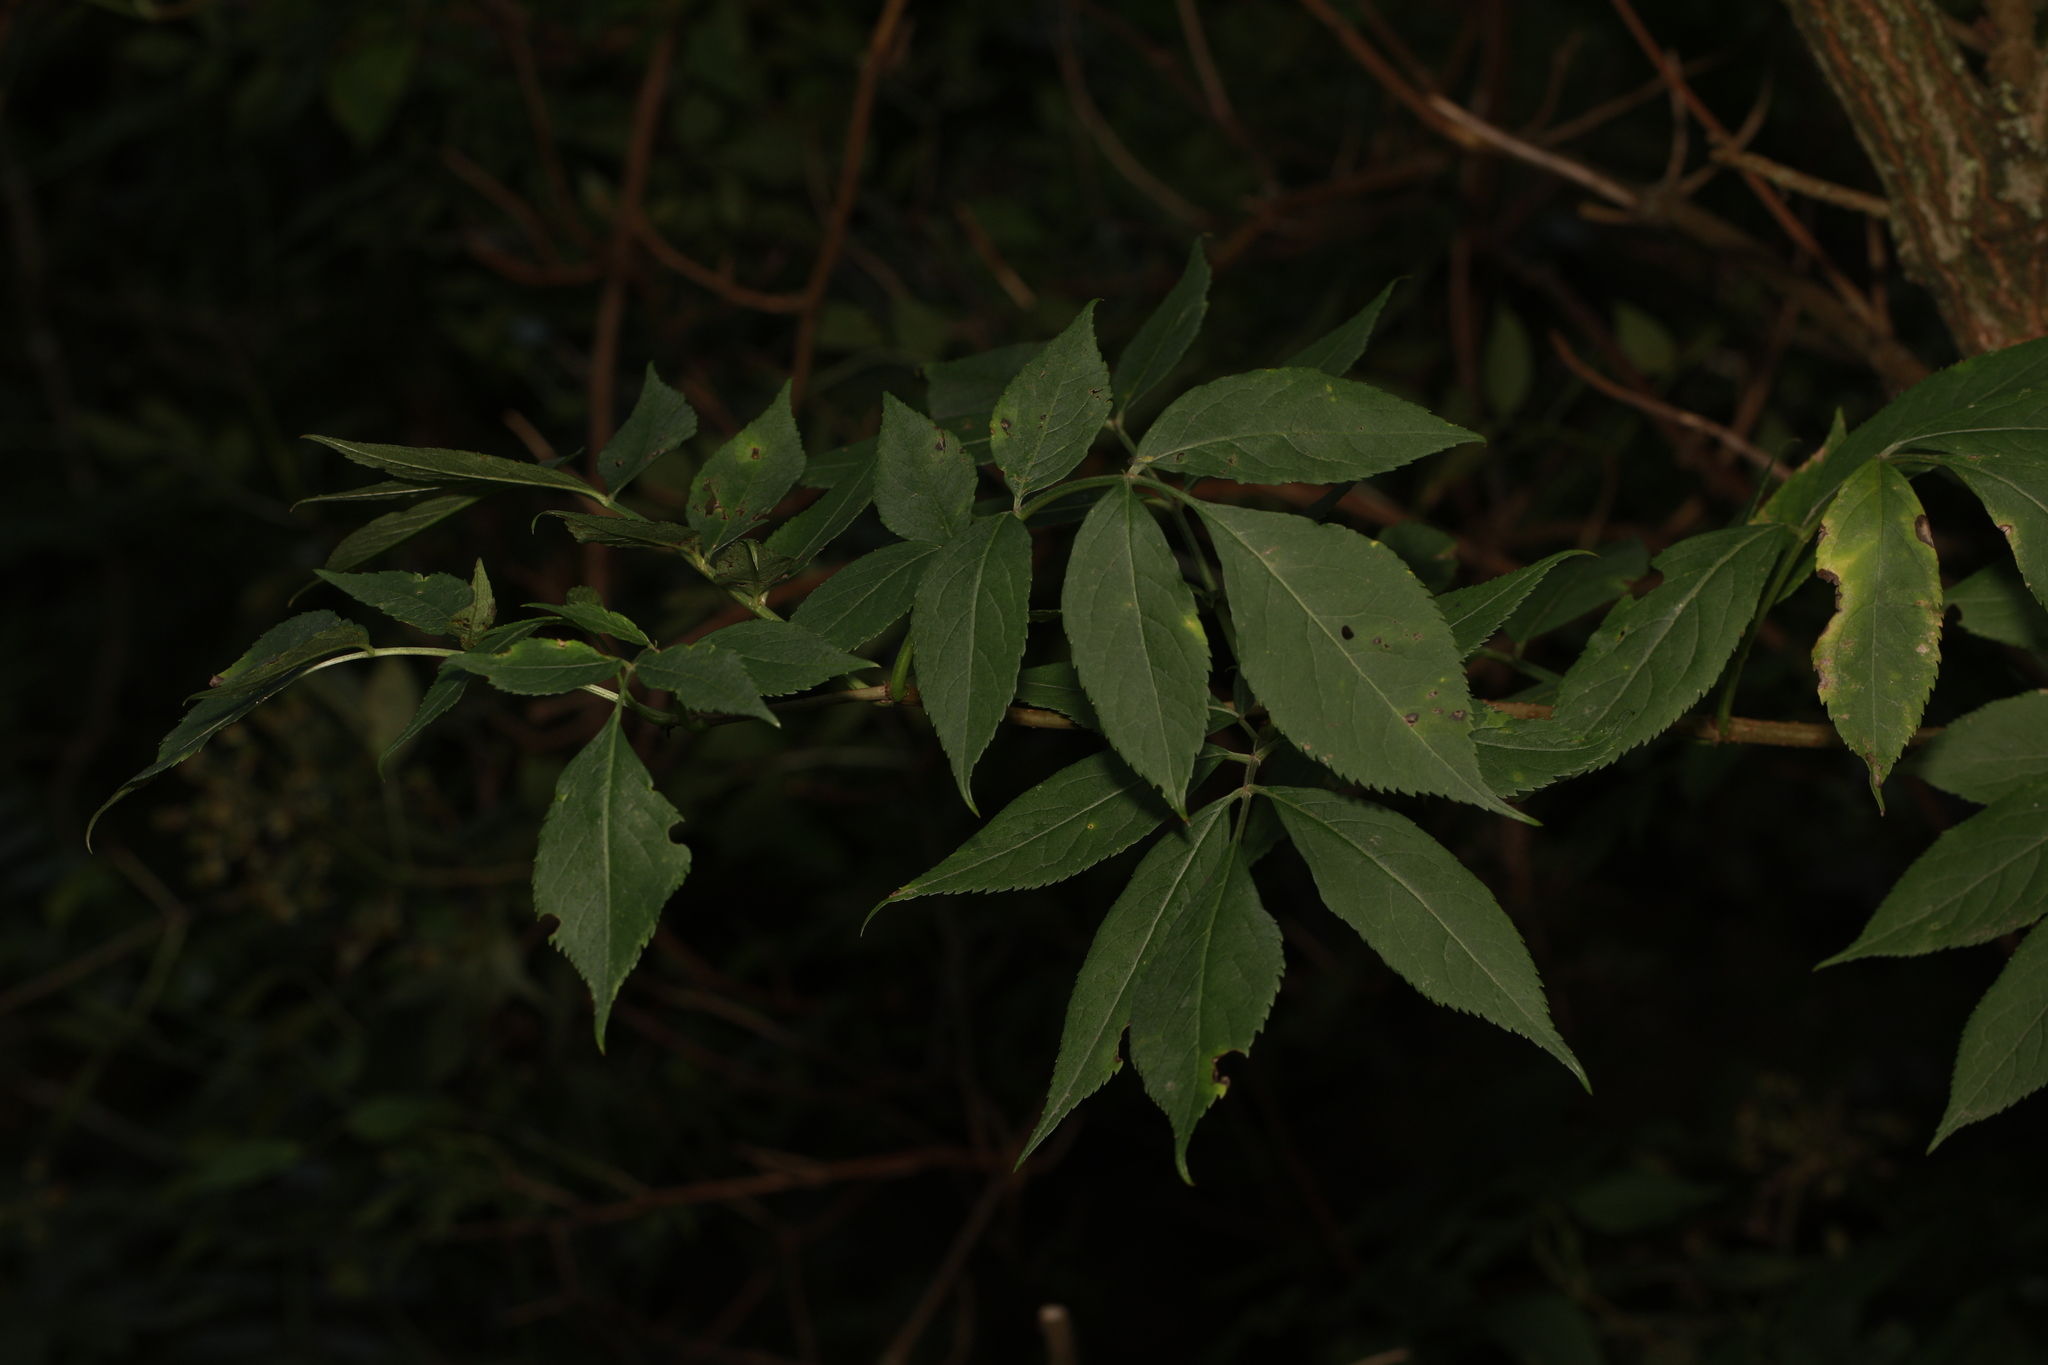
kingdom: Plantae
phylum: Tracheophyta
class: Magnoliopsida
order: Lamiales
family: Oleaceae
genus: Fraxinus
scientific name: Fraxinus excelsior
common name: European ash
